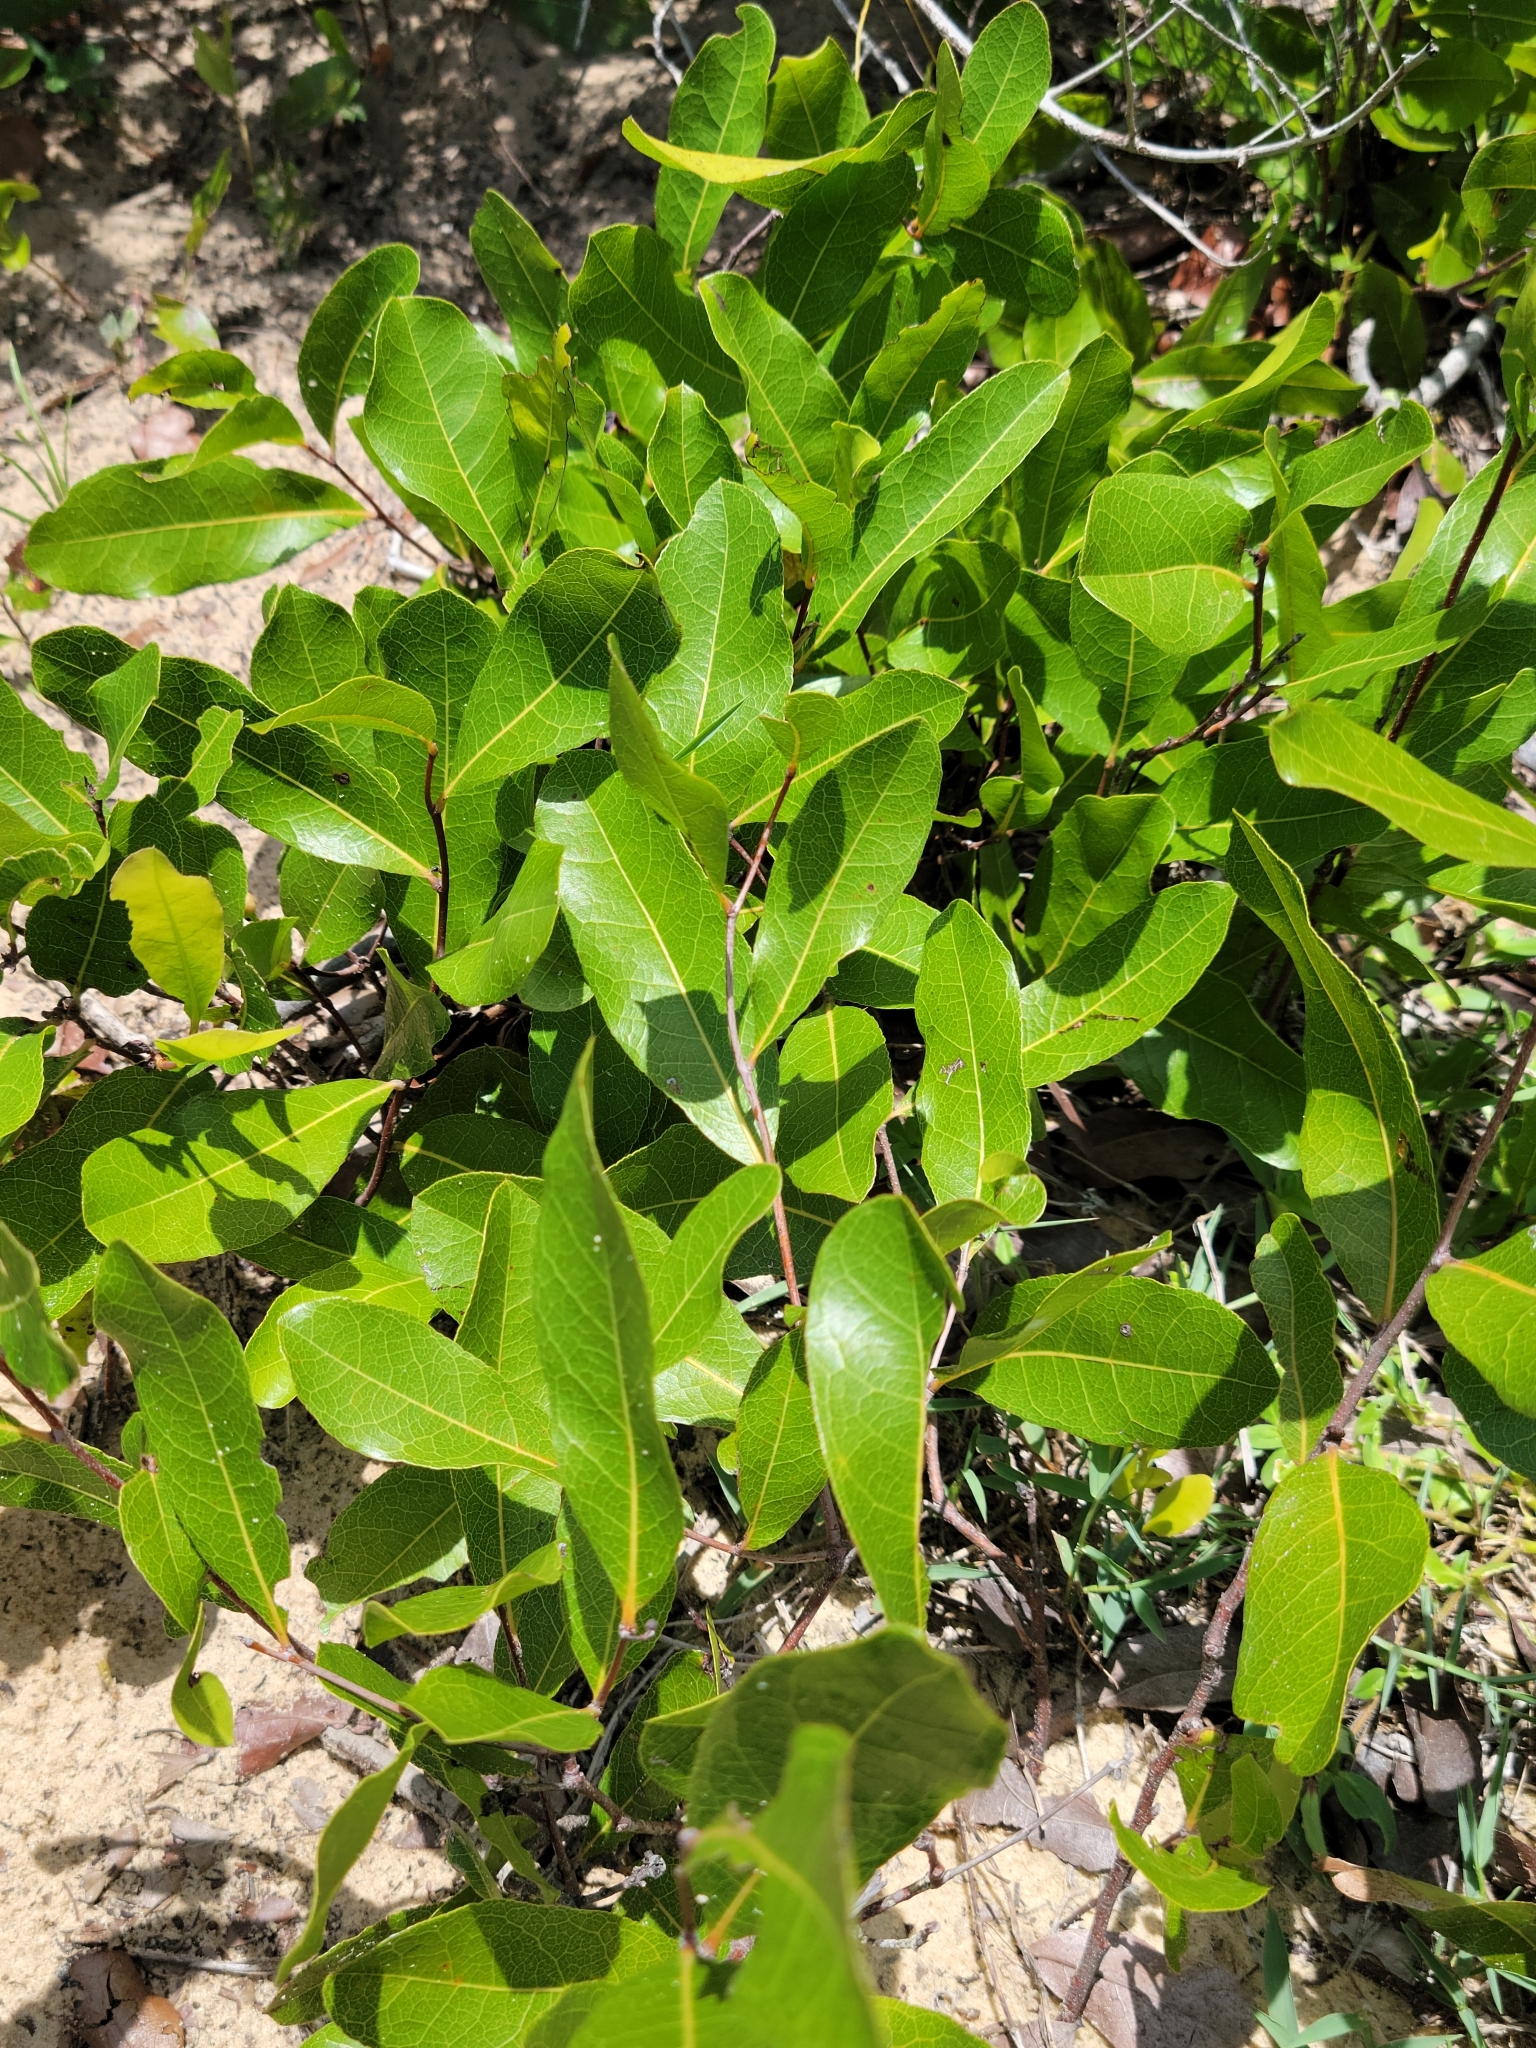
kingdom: Plantae
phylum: Tracheophyta
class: Magnoliopsida
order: Malpighiales
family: Chrysobalanaceae
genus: Geobalanus
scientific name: Geobalanus oblongifolius
